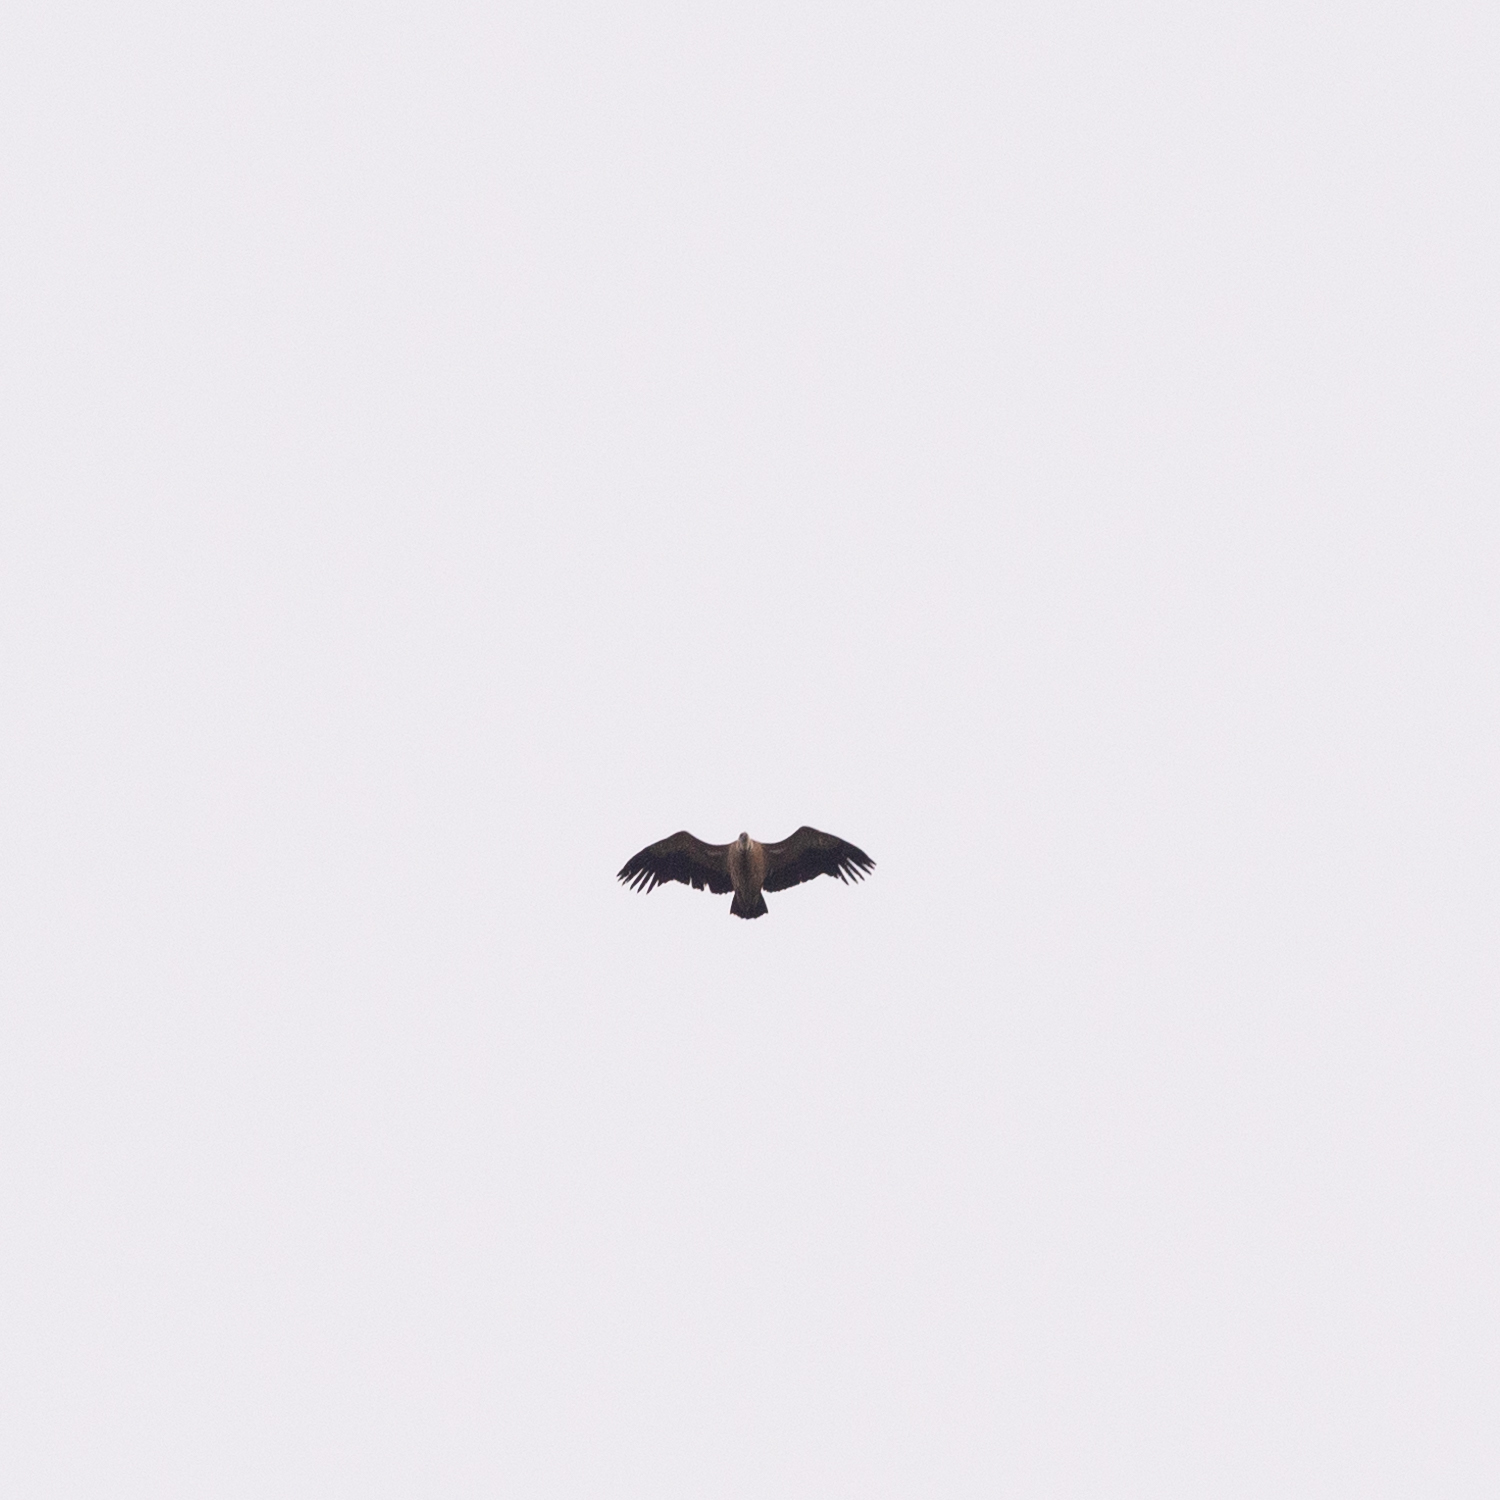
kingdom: Animalia
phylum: Chordata
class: Aves
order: Accipitriformes
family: Accipitridae
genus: Gyps
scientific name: Gyps fulvus
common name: Griffon vulture
